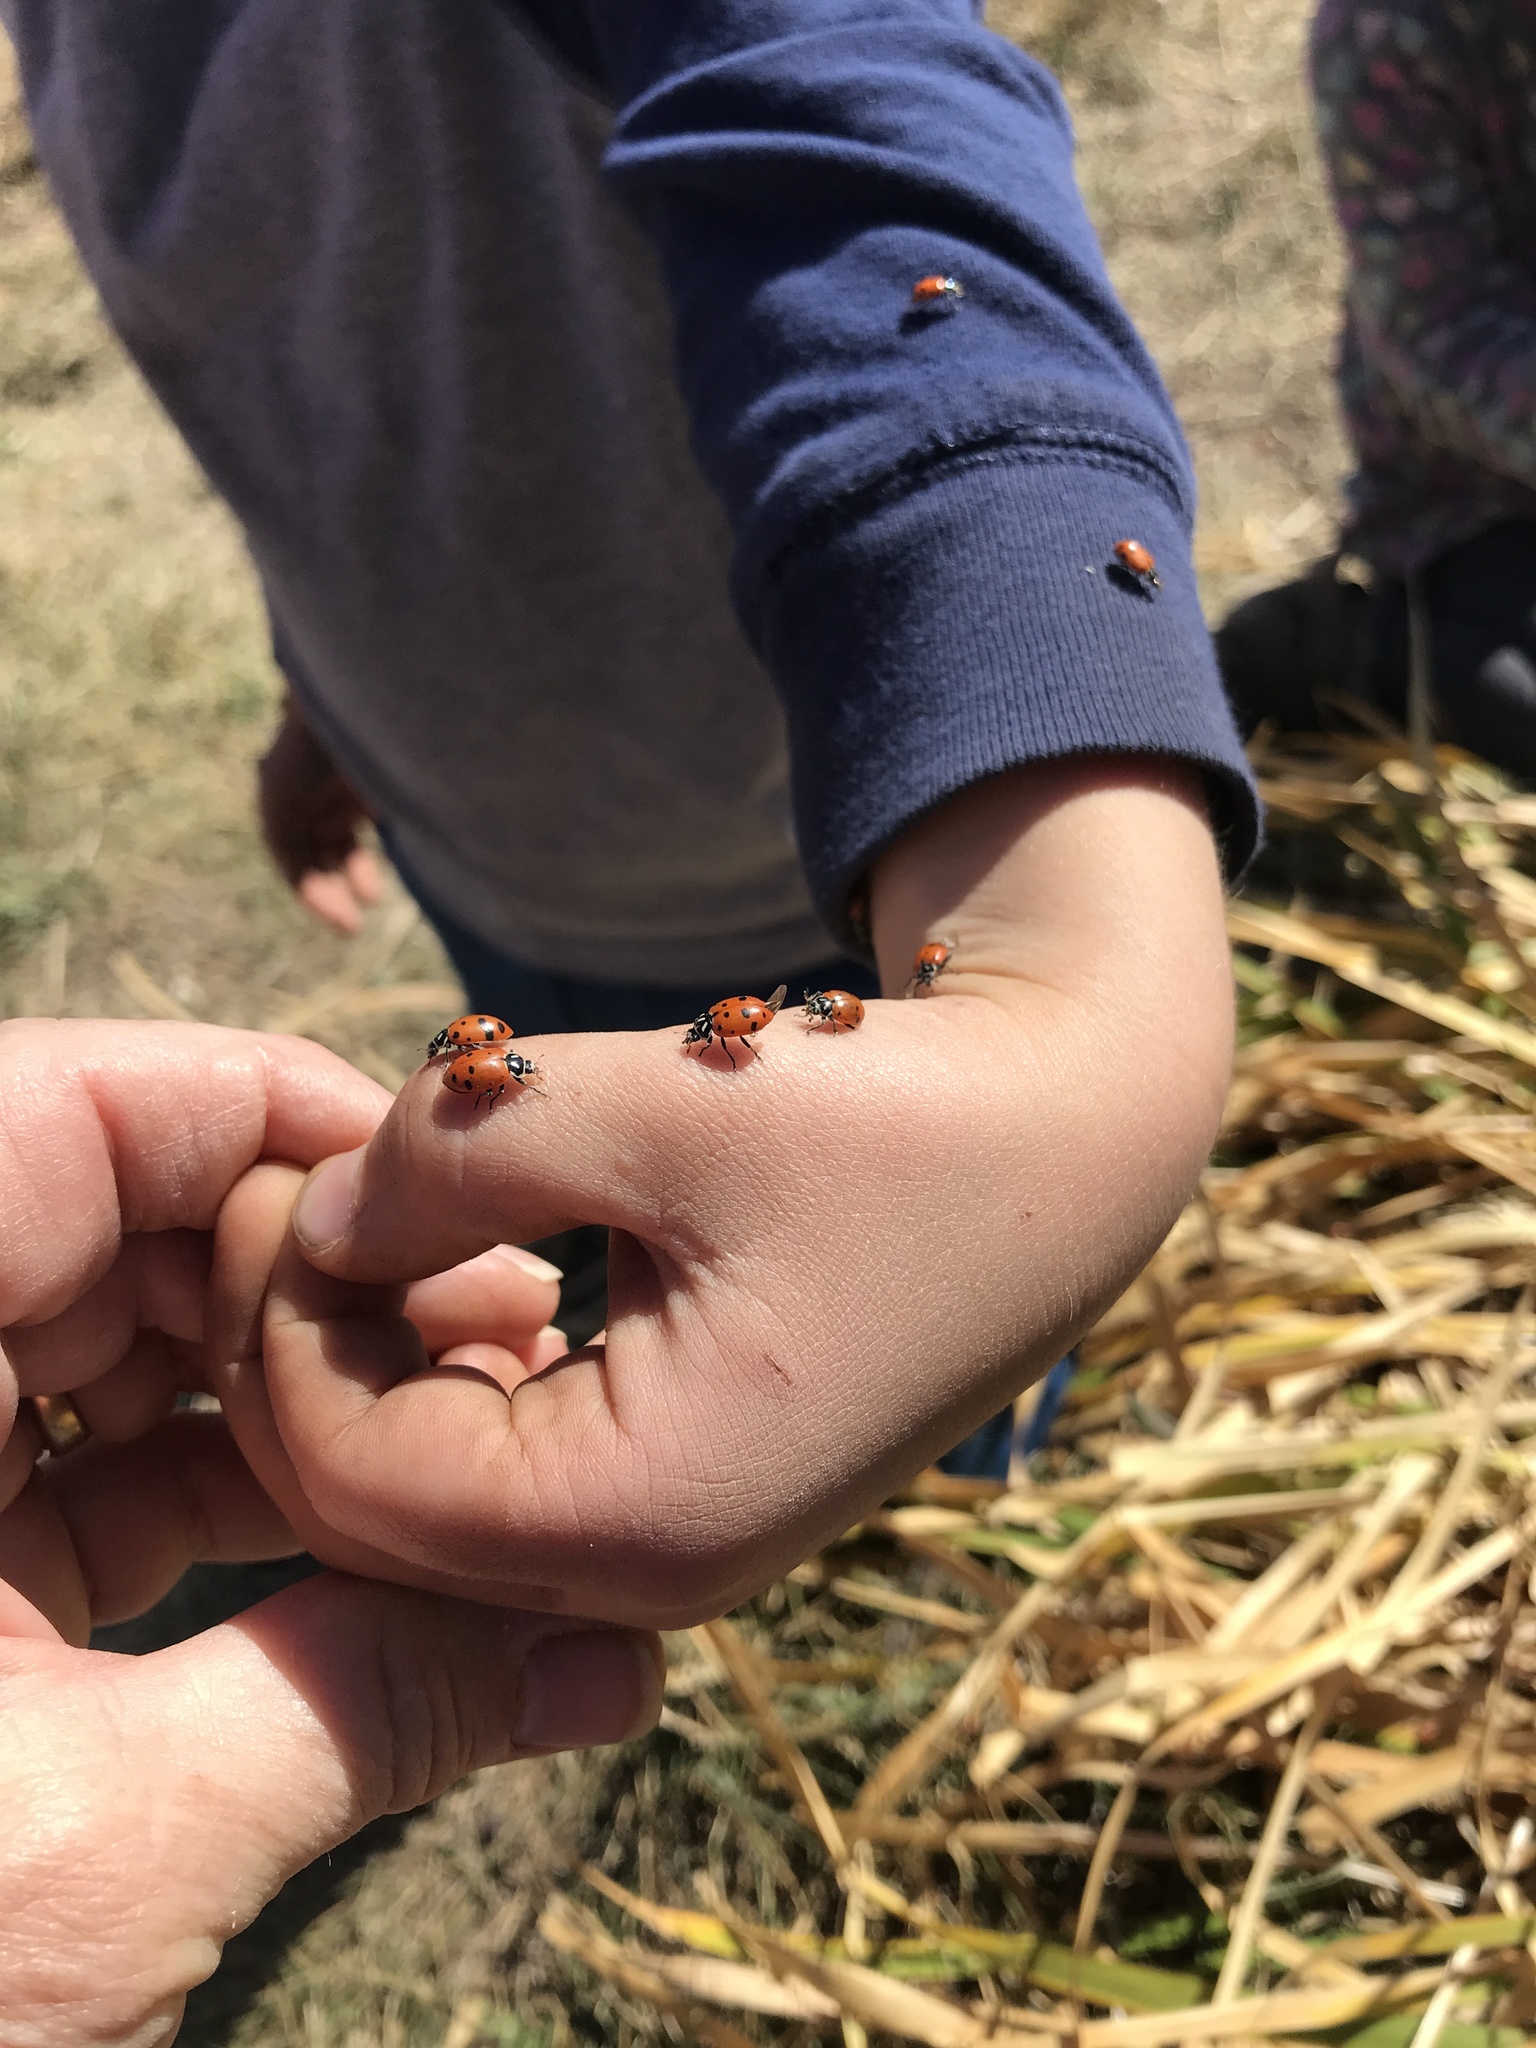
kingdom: Animalia
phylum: Arthropoda
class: Insecta
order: Coleoptera
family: Coccinellidae
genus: Hippodamia
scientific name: Hippodamia convergens
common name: Convergent lady beetle
